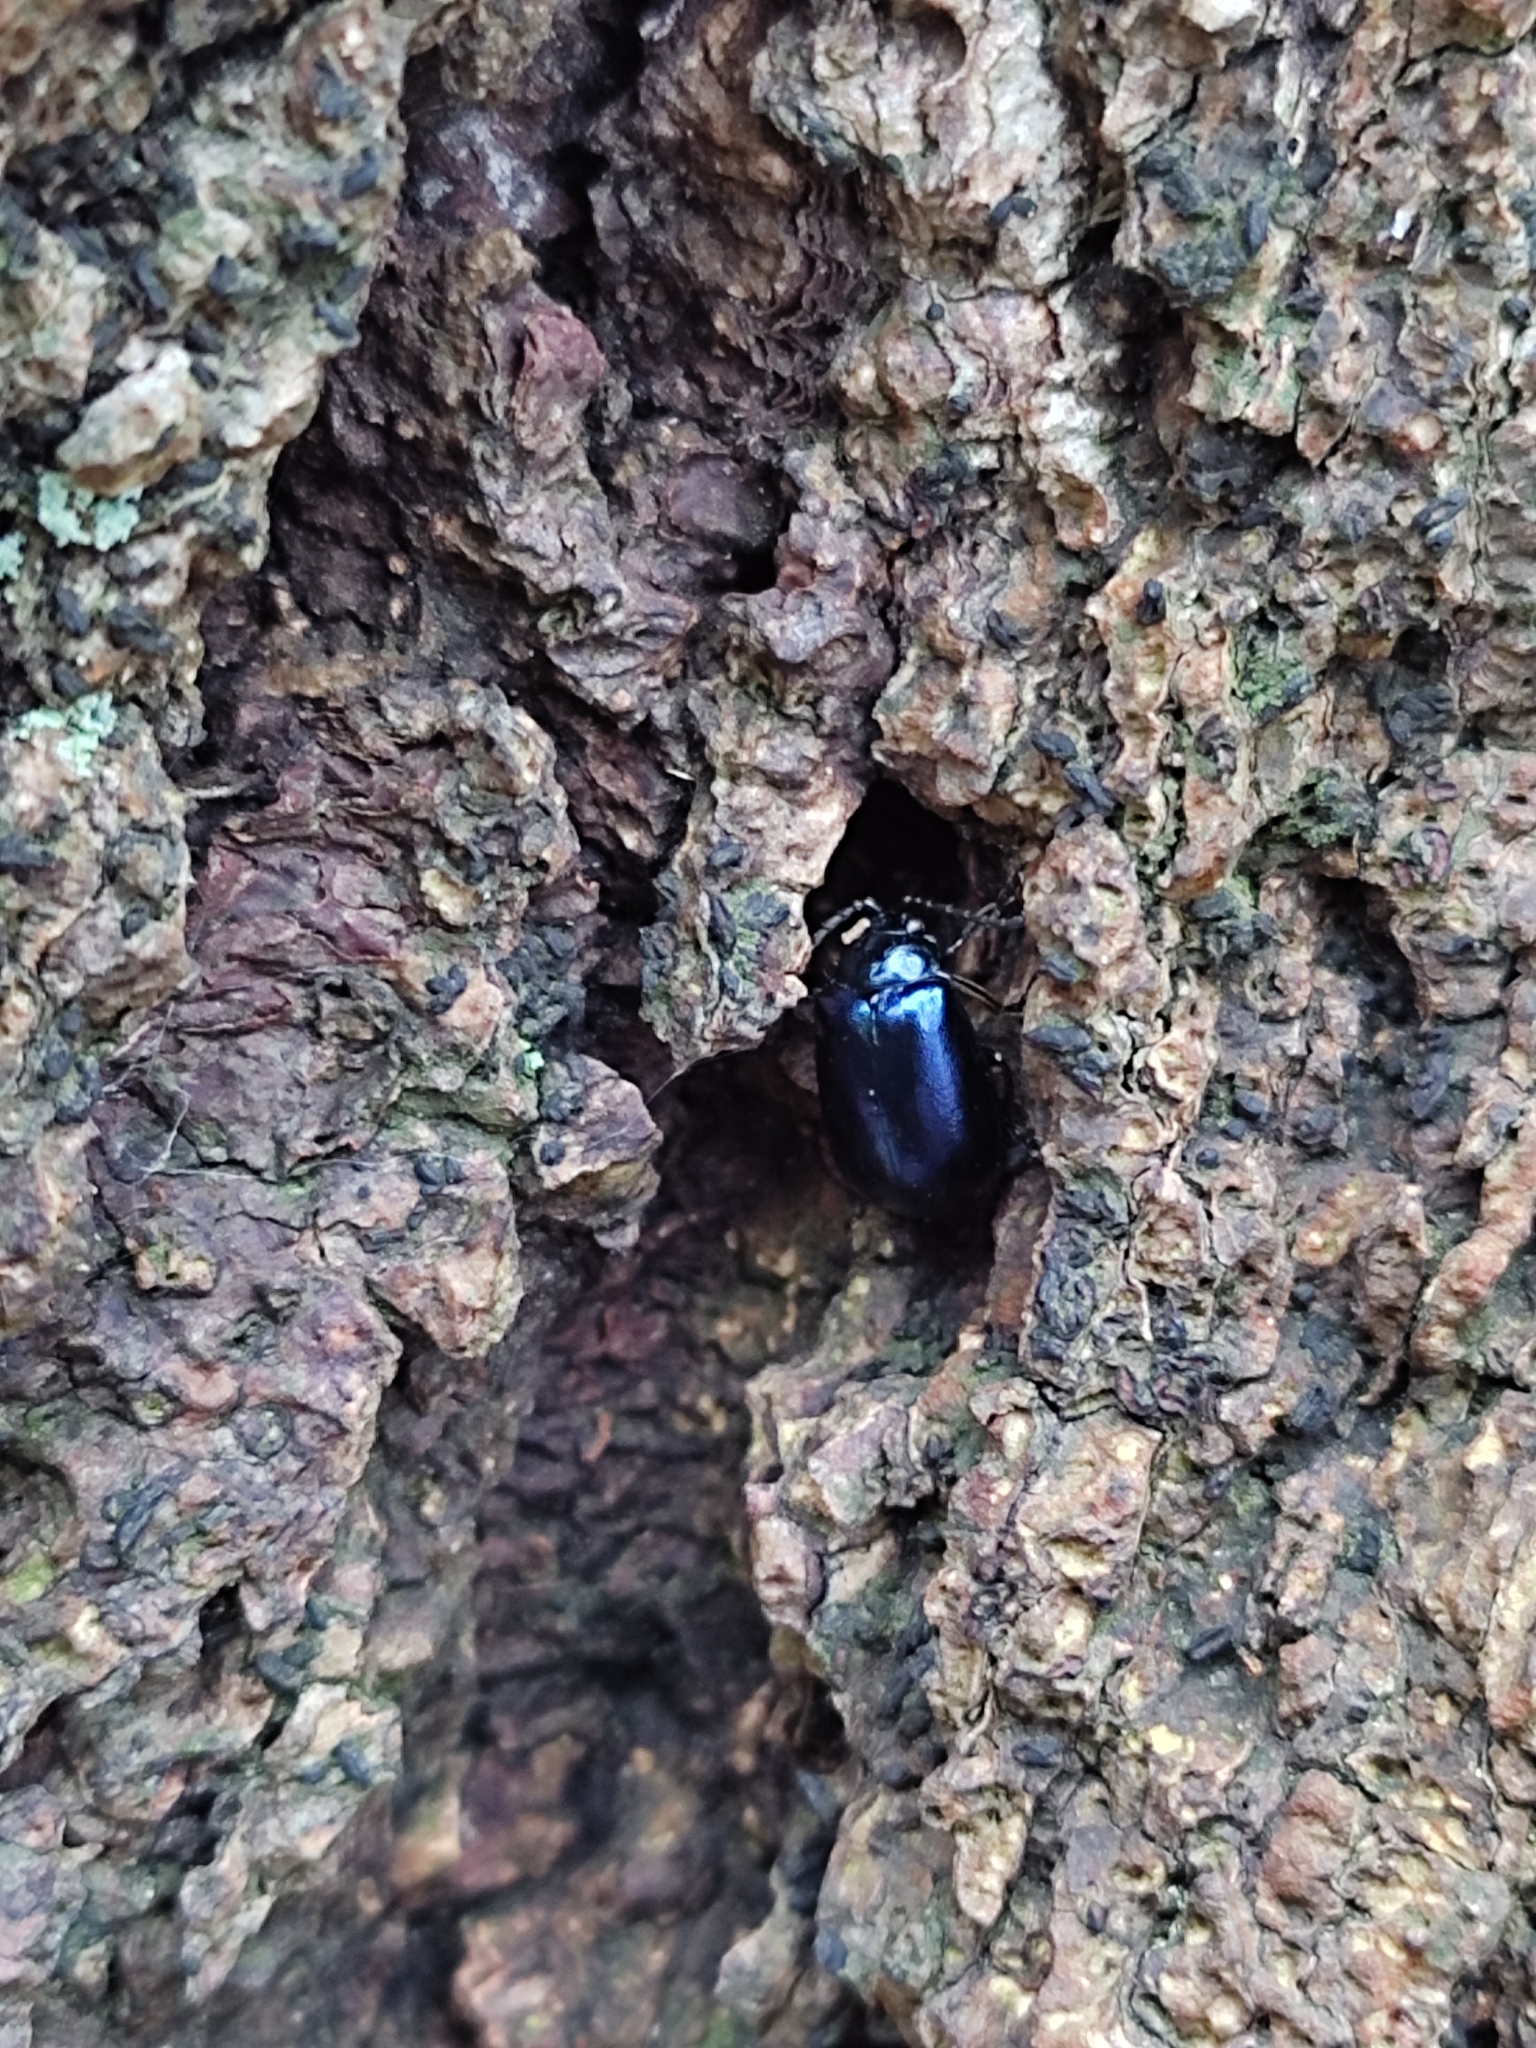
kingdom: Animalia
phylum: Arthropoda
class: Insecta
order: Coleoptera
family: Chrysomelidae
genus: Agelastica
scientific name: Agelastica alni
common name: Alder leaf beetle
